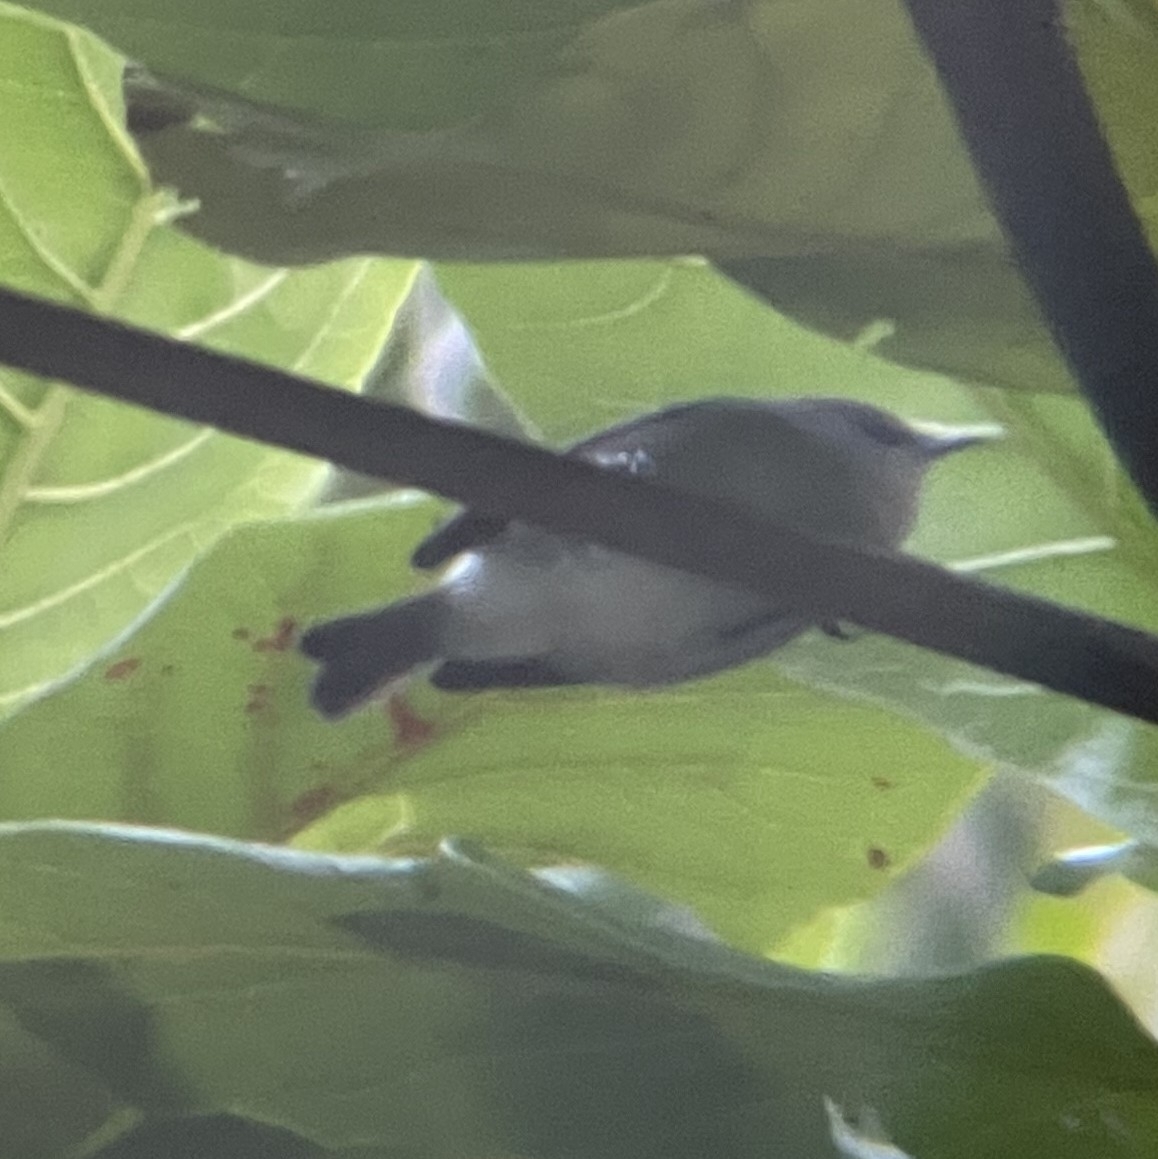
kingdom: Animalia
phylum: Chordata
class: Aves
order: Passeriformes
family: Zosteropidae
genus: Zosterops
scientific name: Zosterops mauritianus
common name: Mauritius gray white-eye
